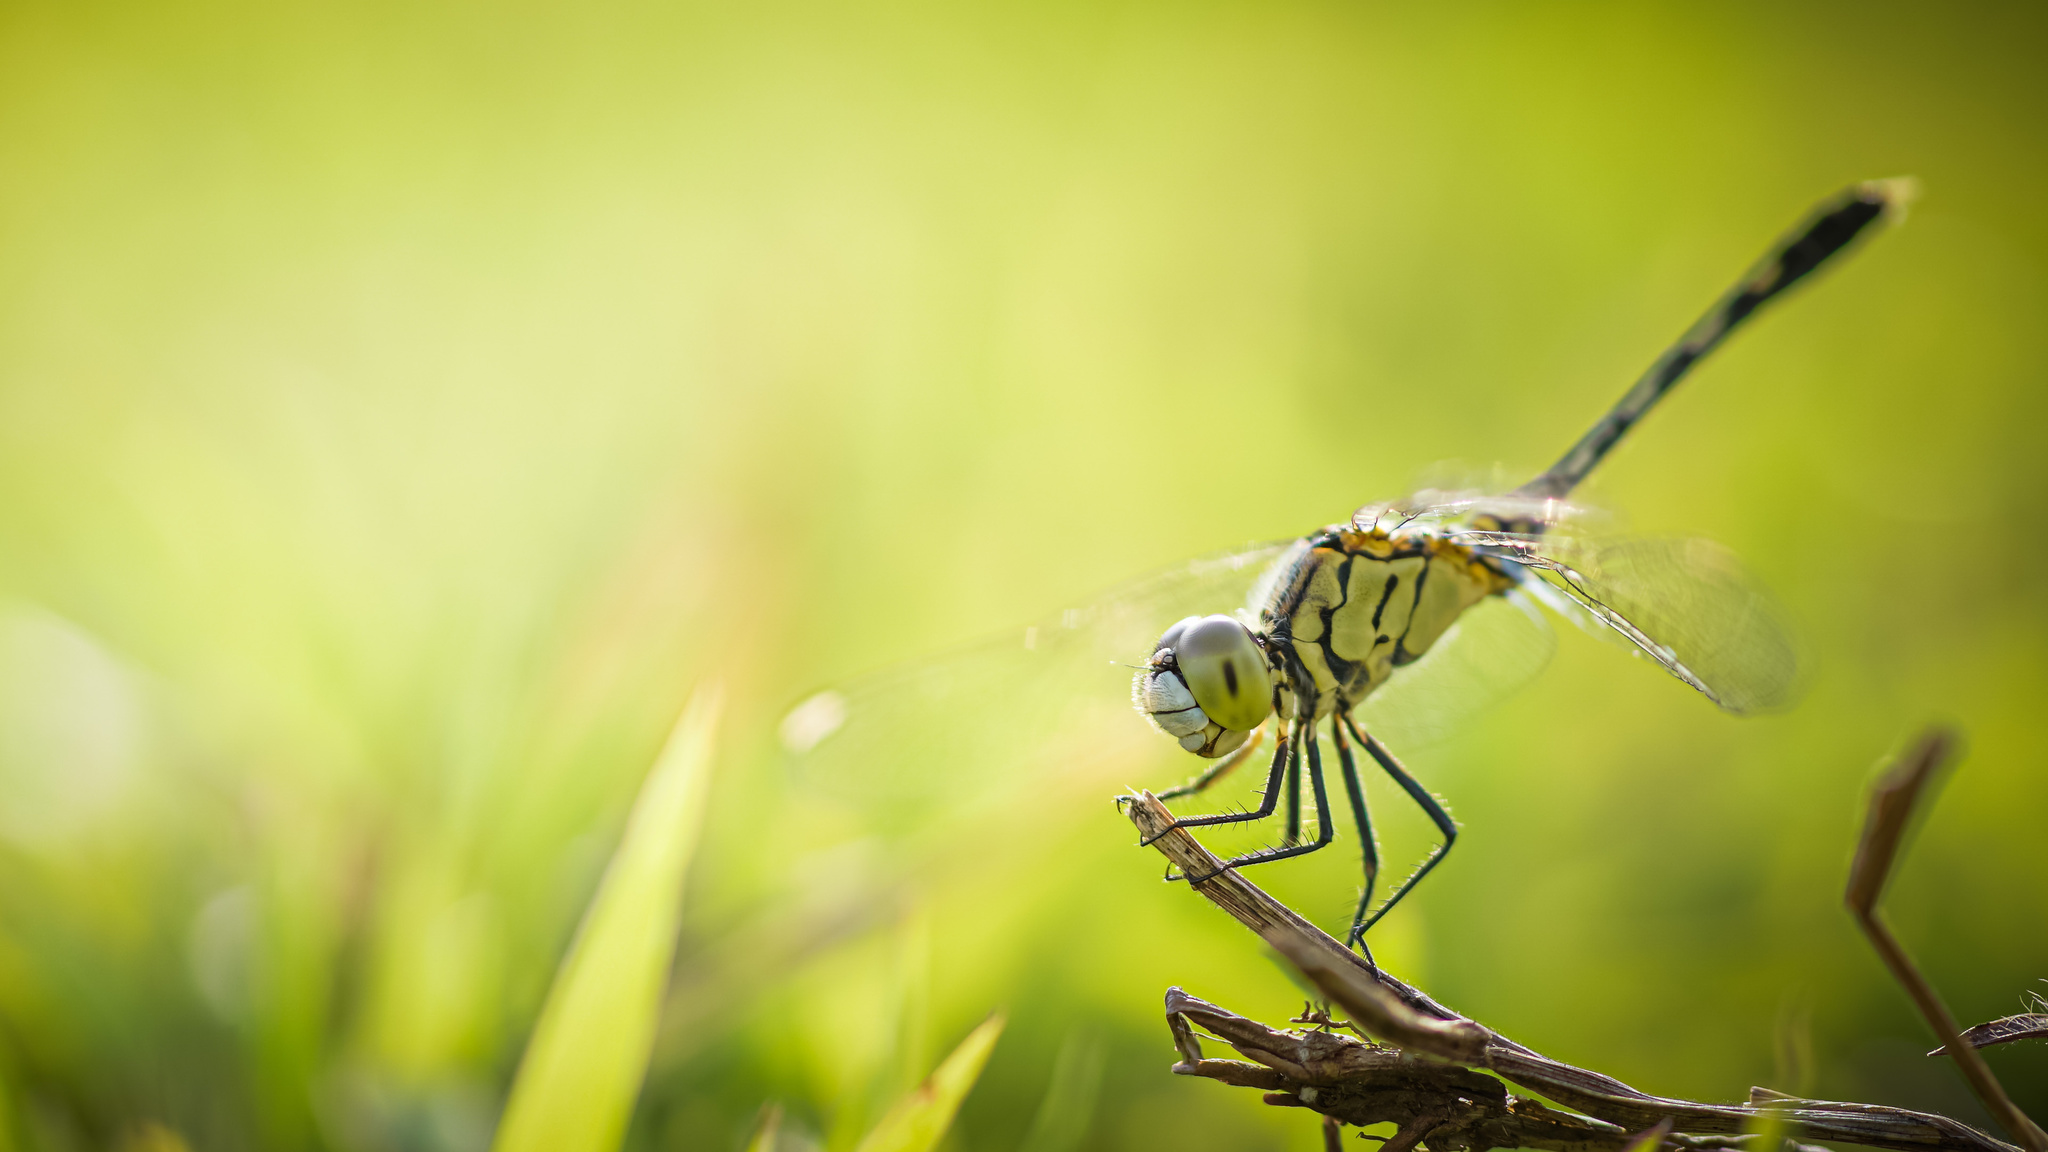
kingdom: Animalia
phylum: Arthropoda
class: Insecta
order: Odonata
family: Libellulidae
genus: Diplacodes
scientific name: Diplacodes trivialis
